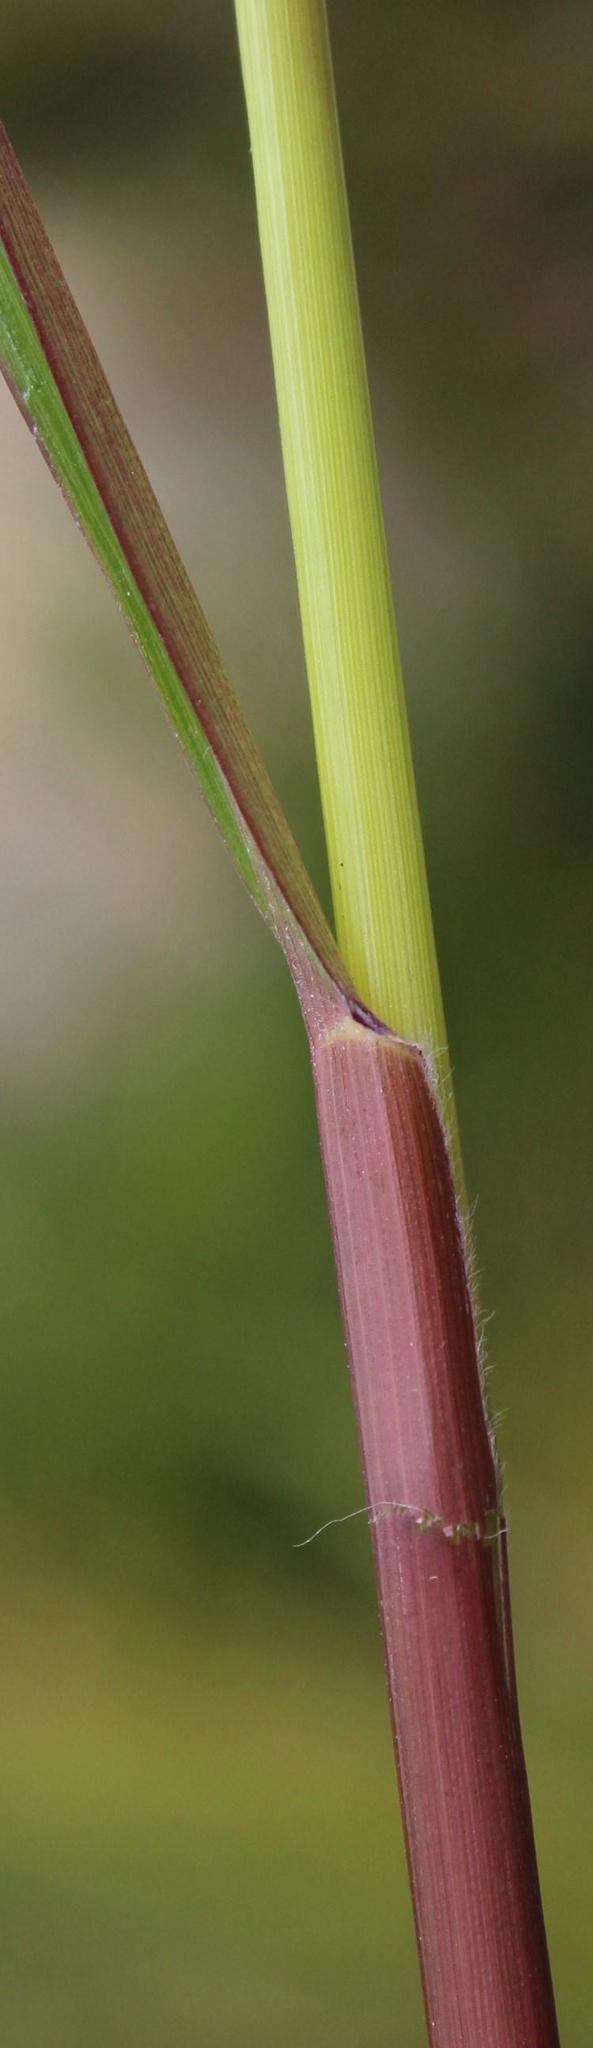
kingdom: Plantae
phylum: Tracheophyta
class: Liliopsida
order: Poales
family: Poaceae
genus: Setaria
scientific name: Setaria sphacelata
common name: African bristlegrass
